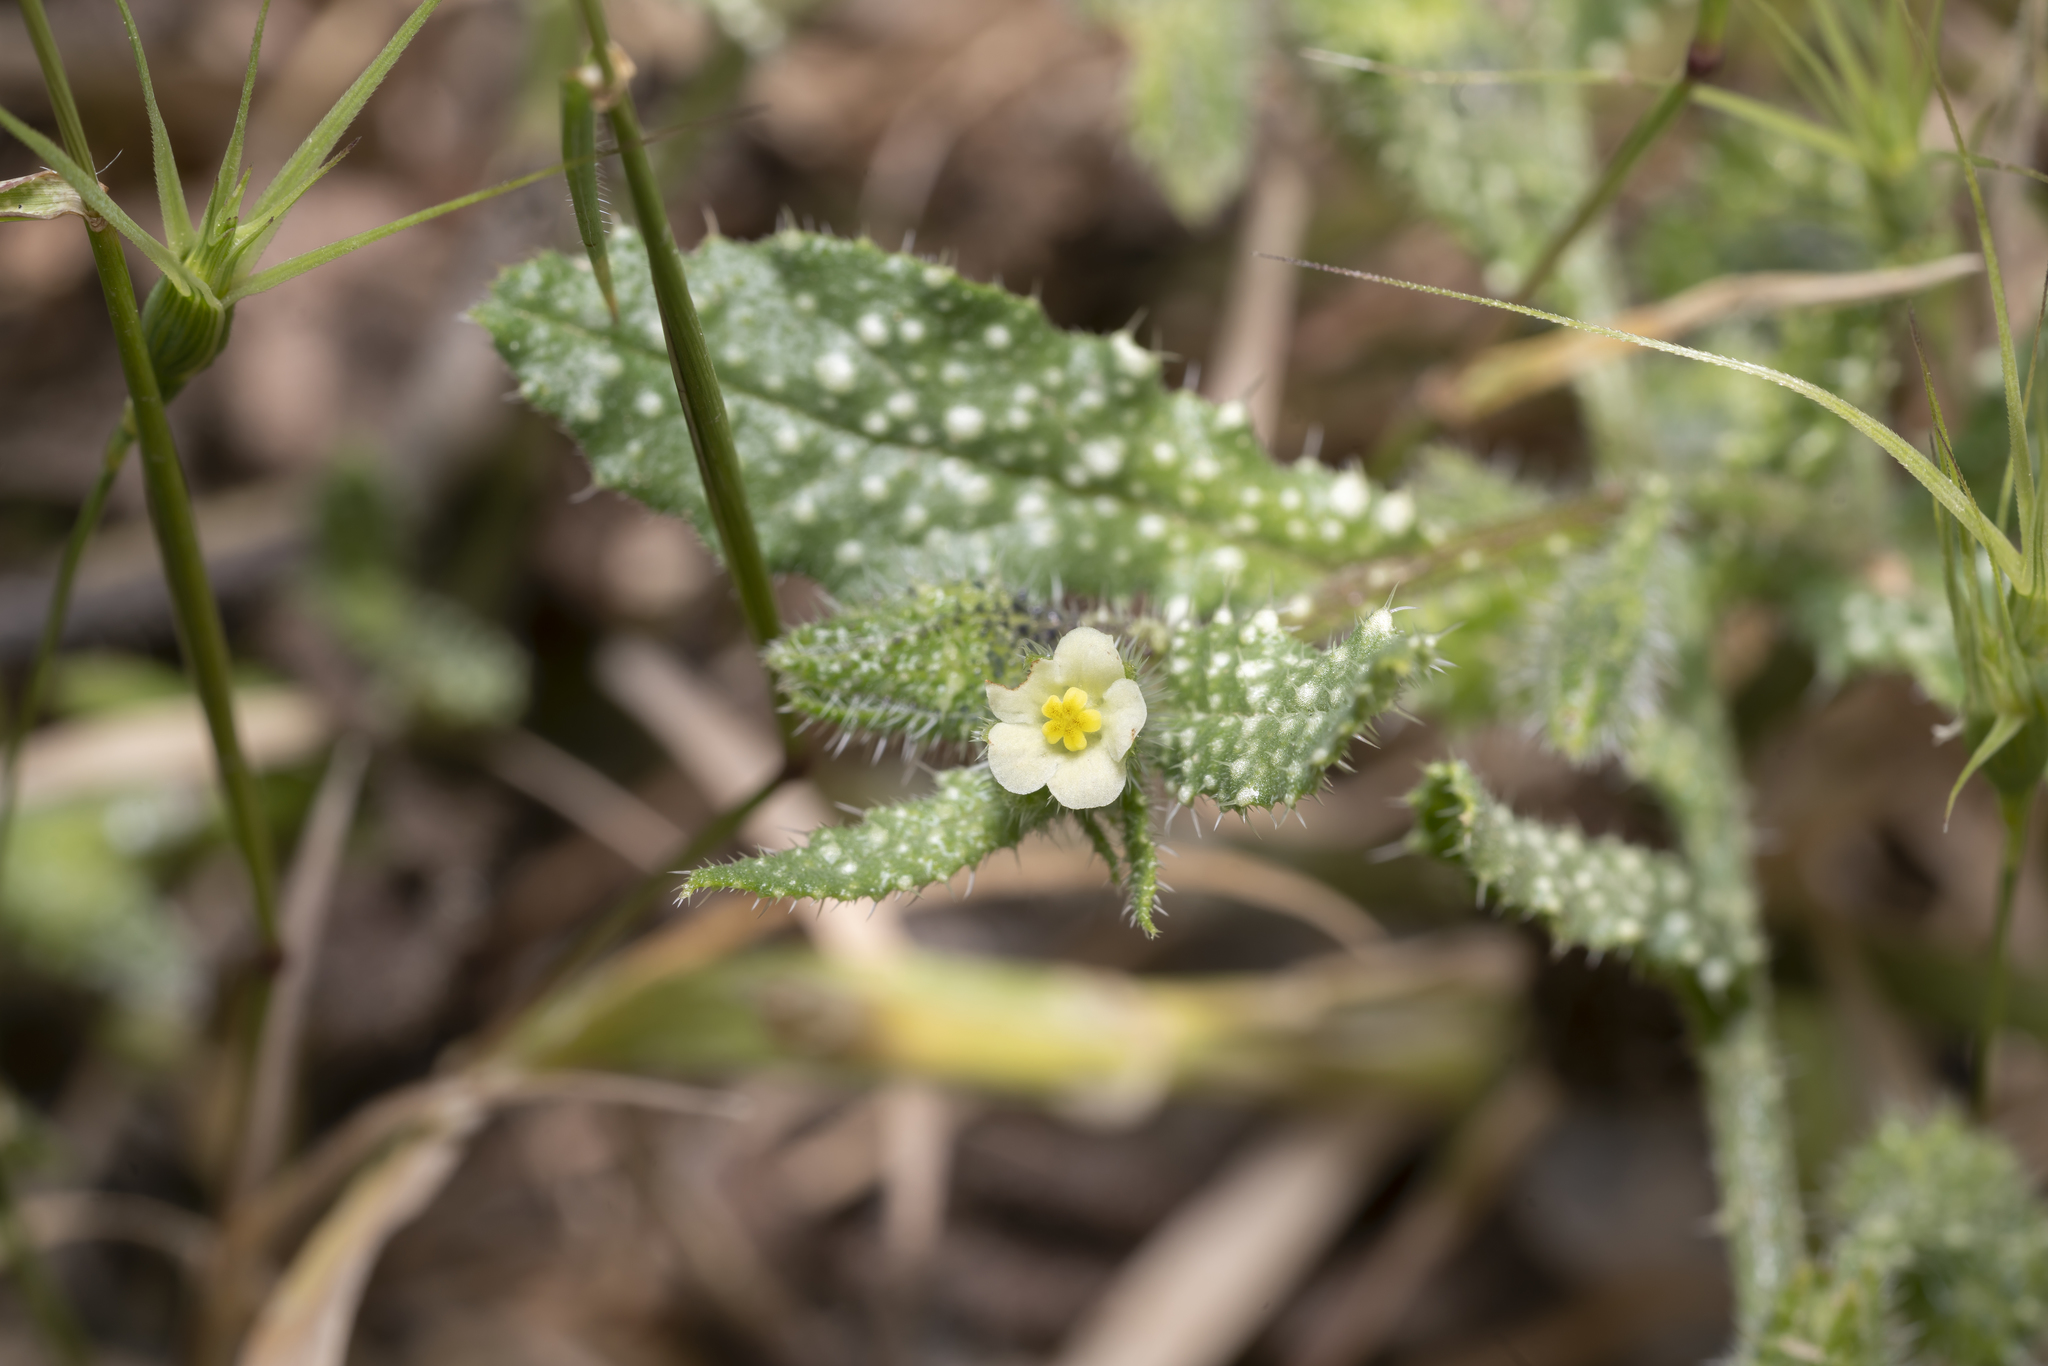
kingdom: Plantae
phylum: Tracheophyta
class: Magnoliopsida
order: Boraginales
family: Boraginaceae
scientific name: Boraginaceae
